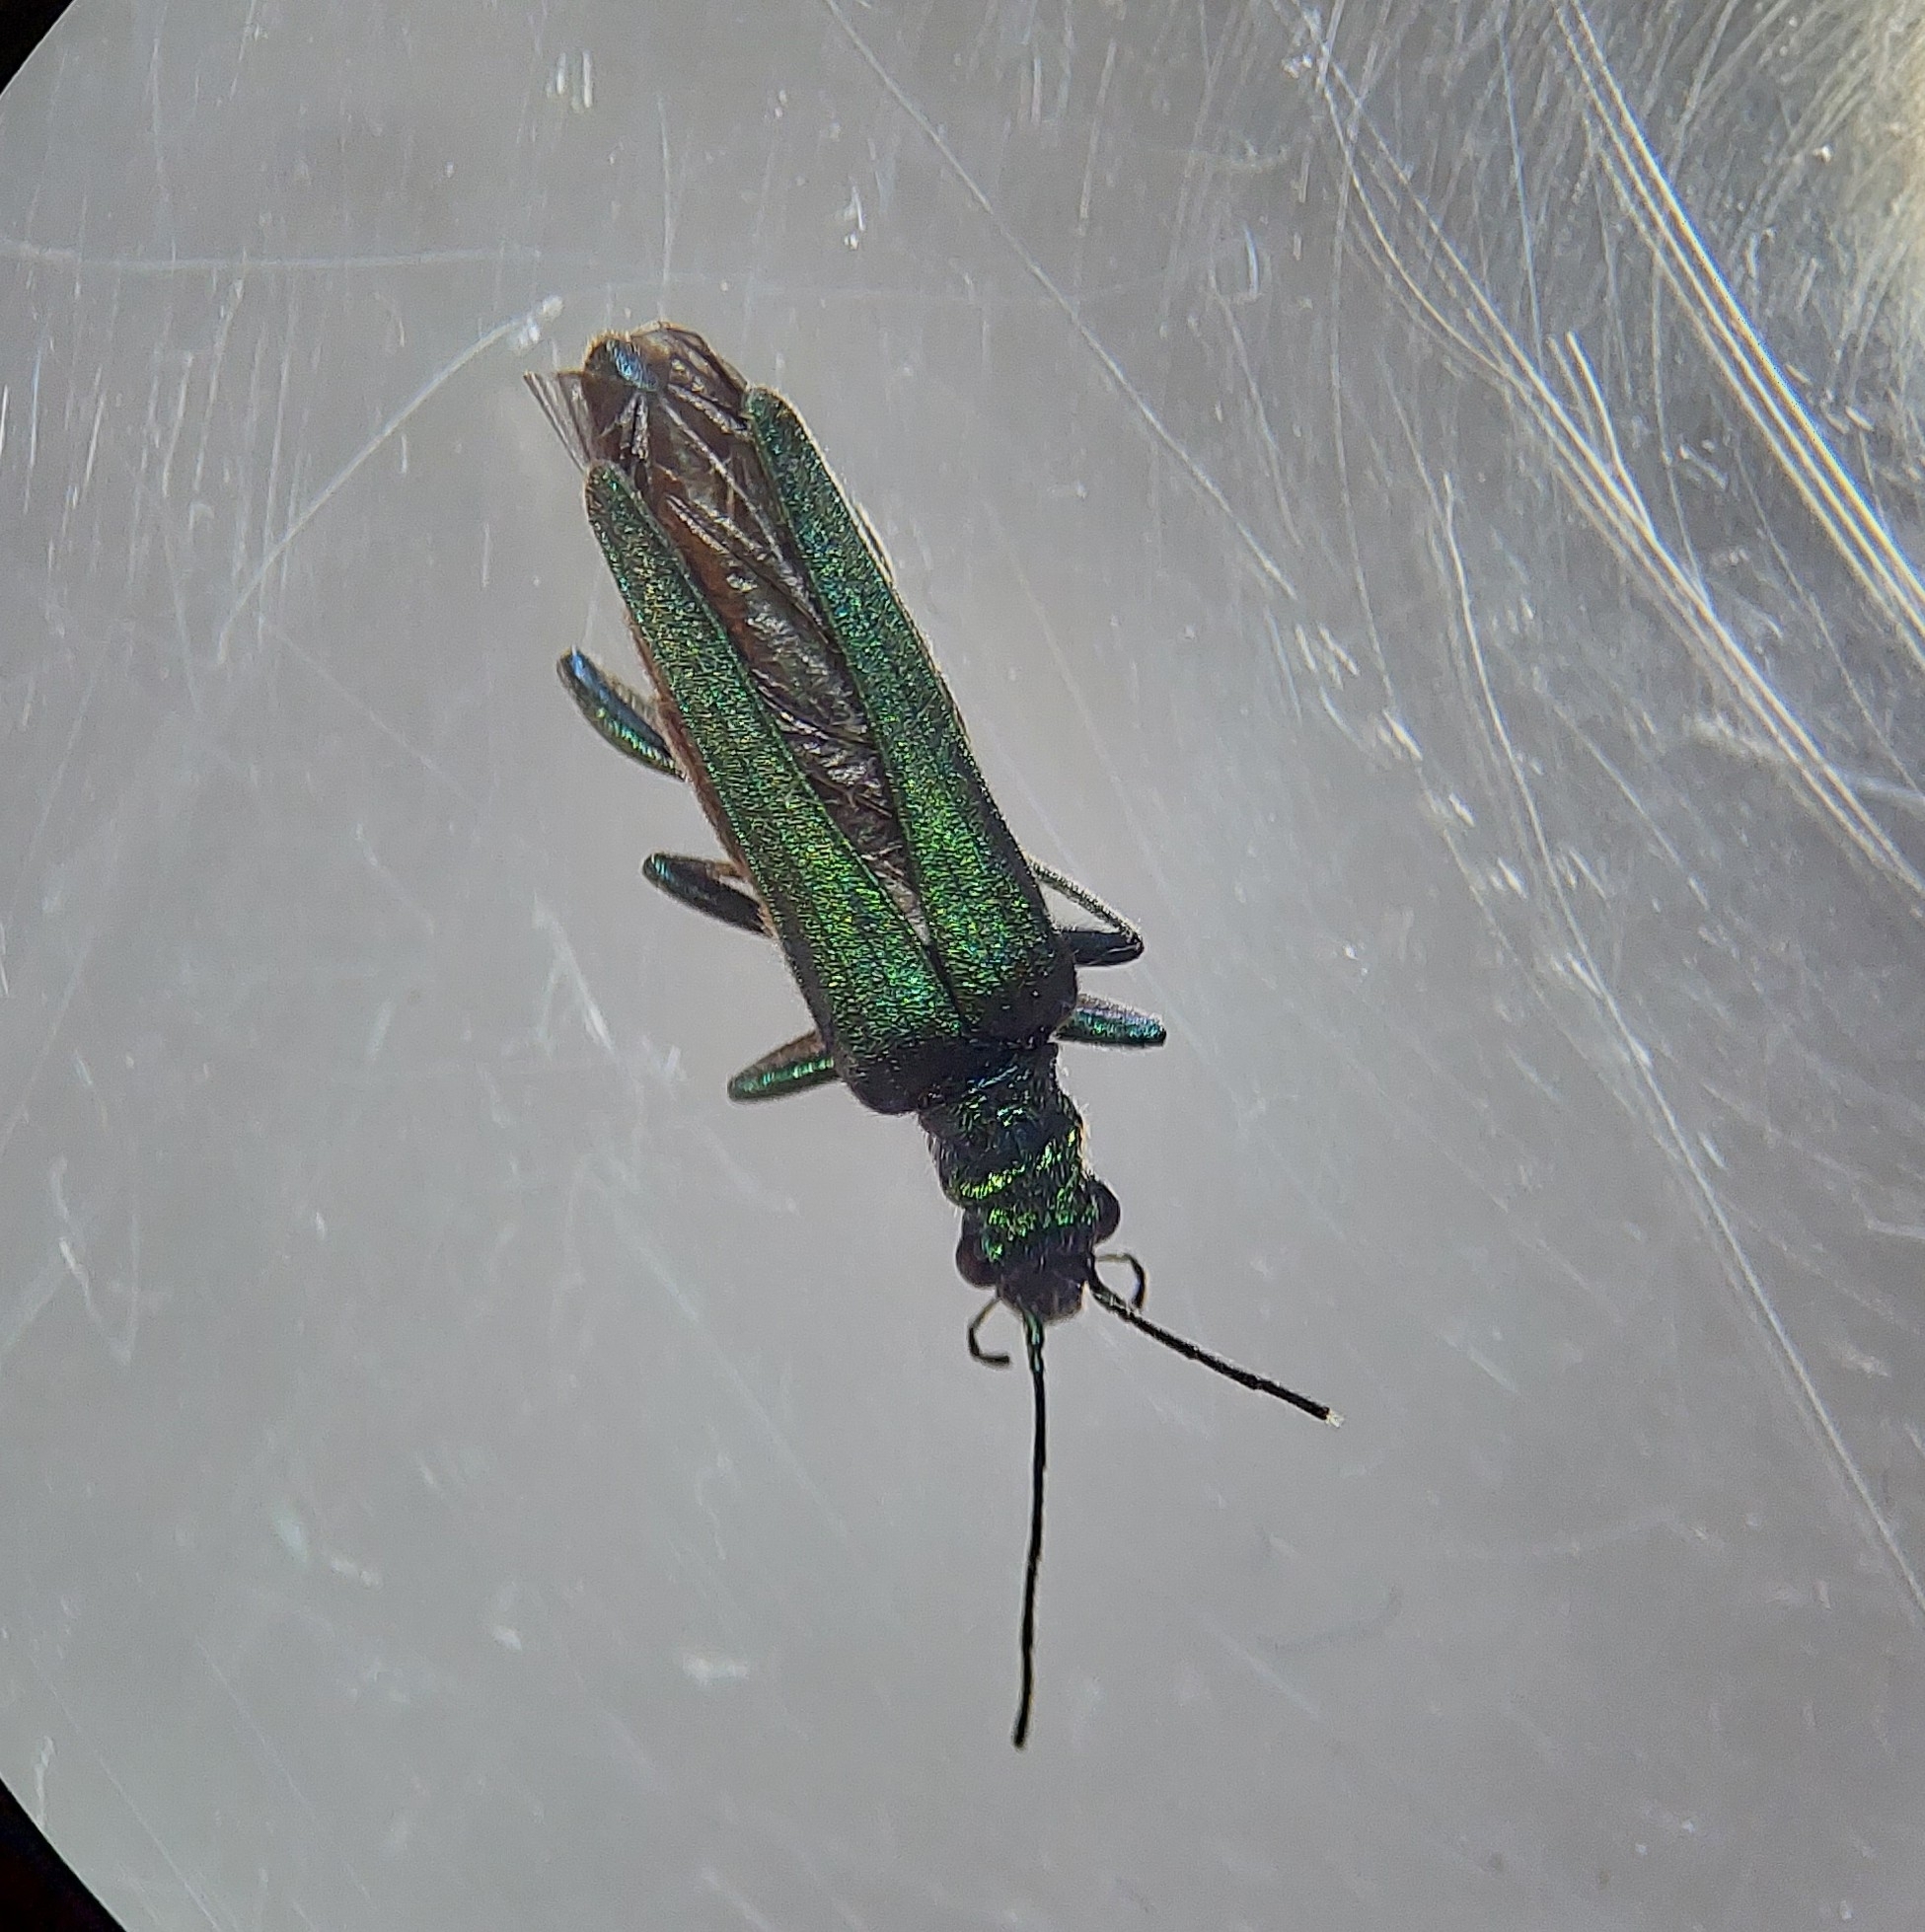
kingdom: Animalia
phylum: Arthropoda
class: Insecta
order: Coleoptera
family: Oedemeridae
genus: Oedemera
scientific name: Oedemera nobilis
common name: Swollen-thighed beetle
